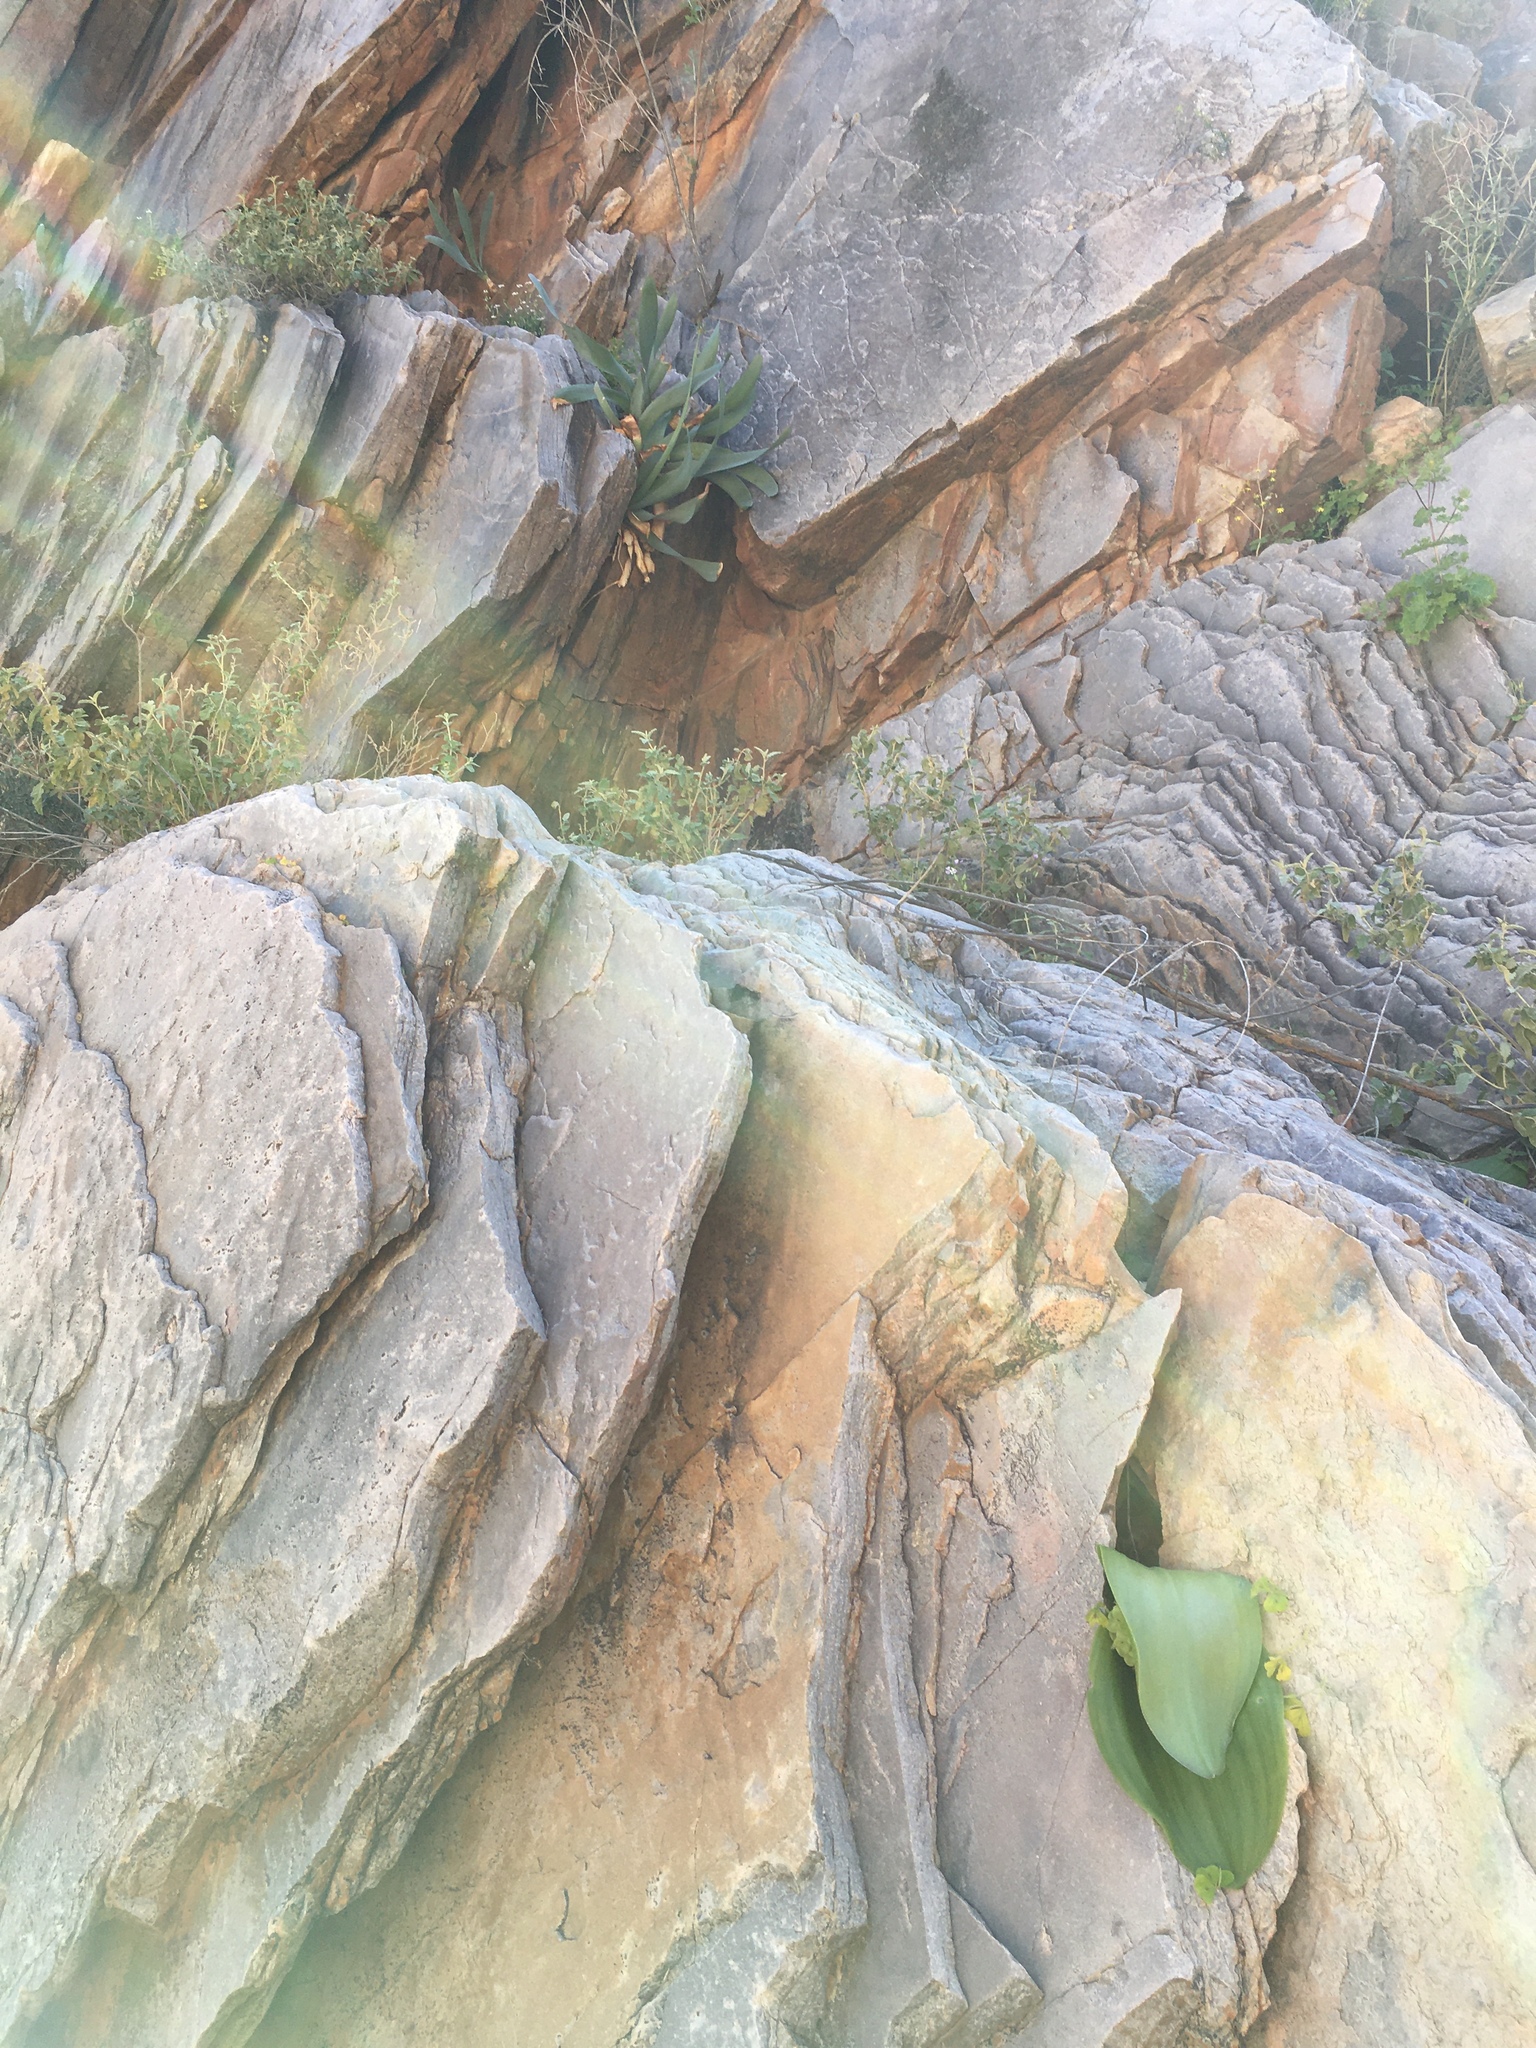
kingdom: Plantae
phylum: Tracheophyta
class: Liliopsida
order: Asparagales
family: Asparagaceae
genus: Massonia
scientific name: Massonia bifolia
